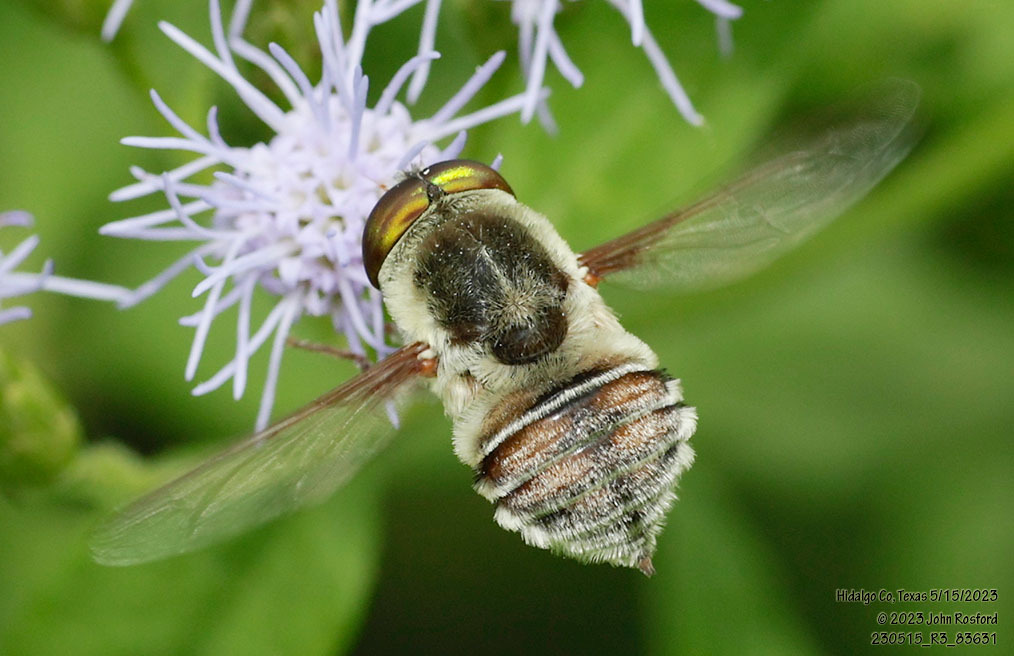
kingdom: Animalia
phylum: Arthropoda
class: Insecta
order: Diptera
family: Nemestrinidae
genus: Neorhynchocephalus
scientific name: Neorhynchocephalus volaticus
